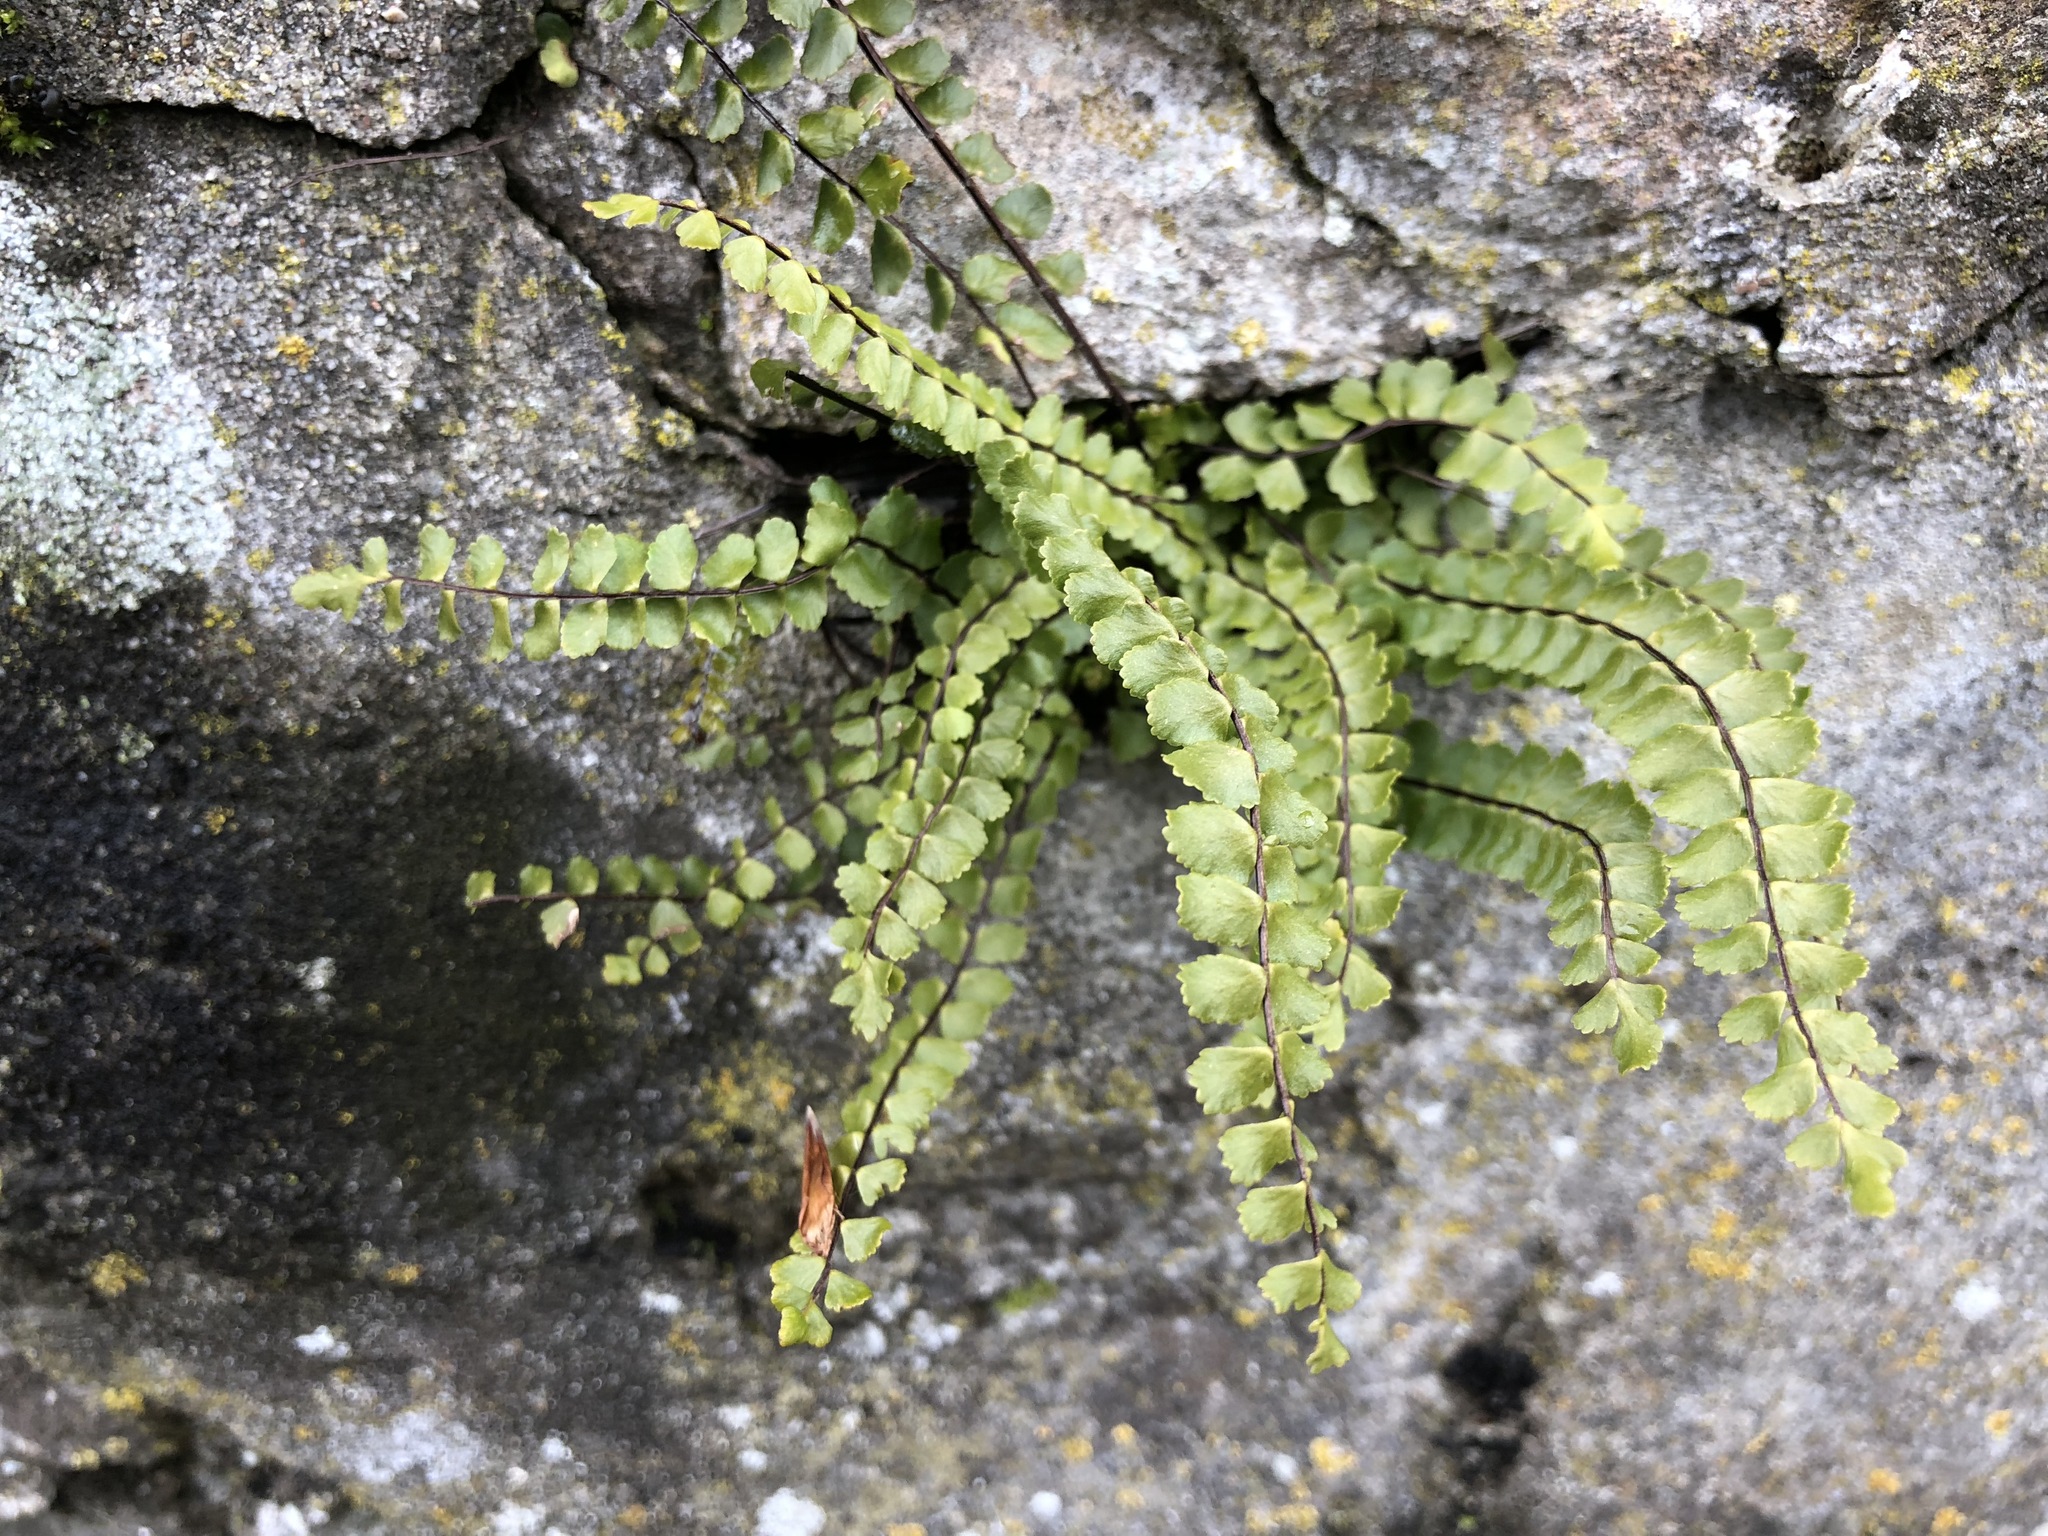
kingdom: Plantae
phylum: Tracheophyta
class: Polypodiopsida
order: Polypodiales
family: Aspleniaceae
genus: Asplenium
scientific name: Asplenium trichomanes
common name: Maidenhair spleenwort
